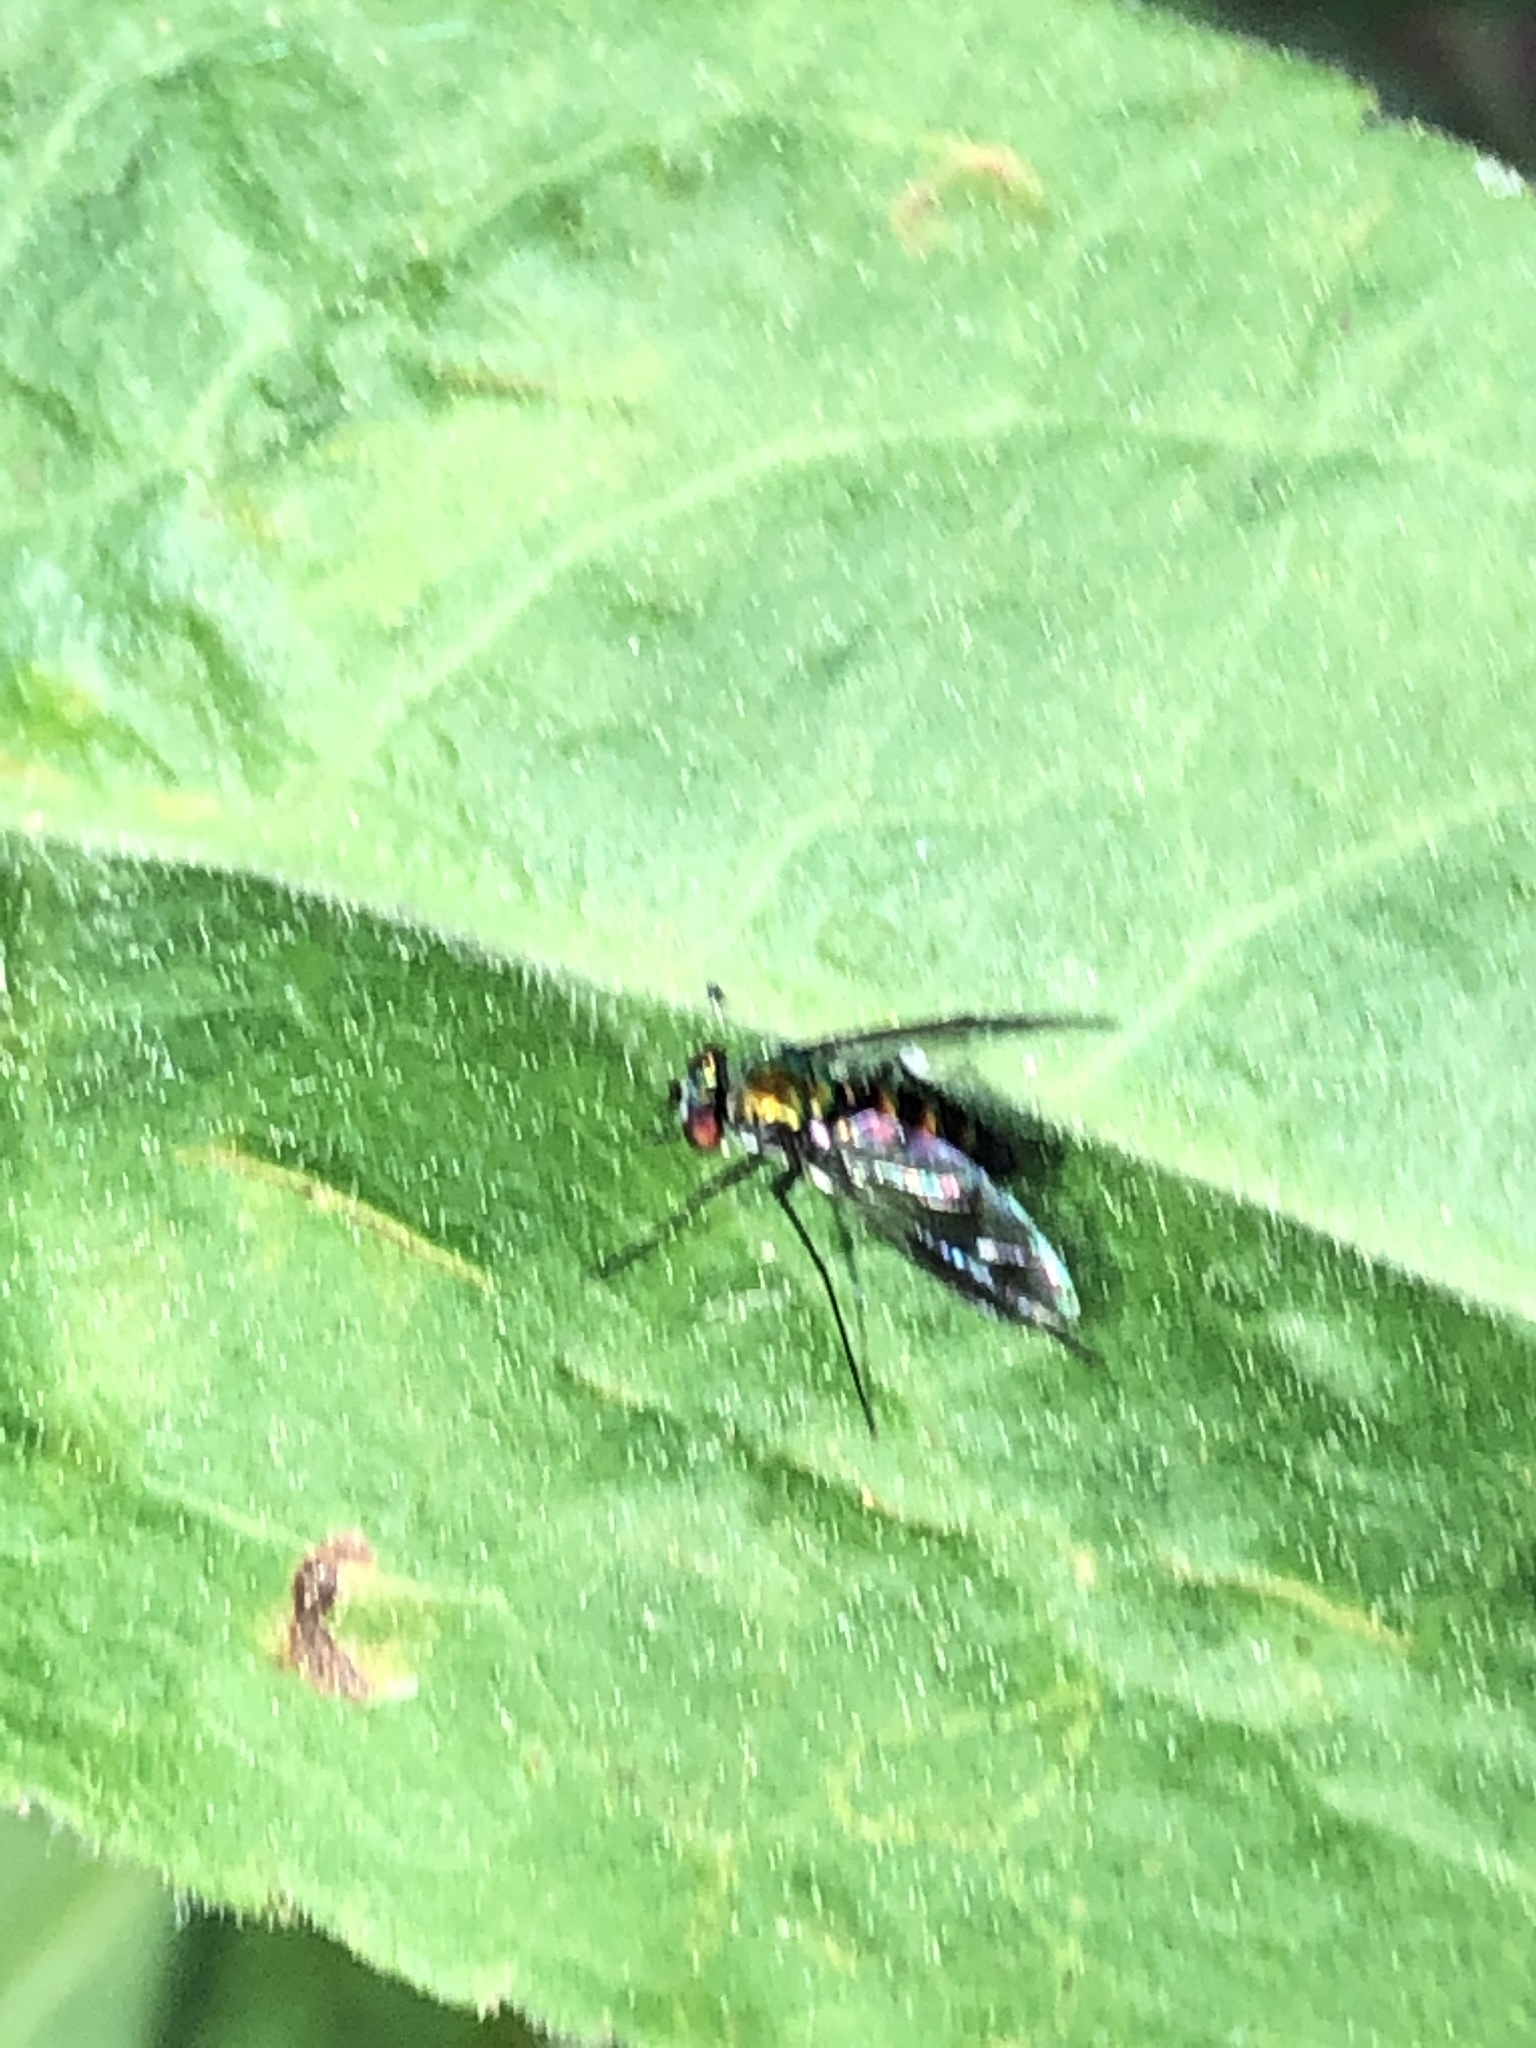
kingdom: Animalia
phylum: Arthropoda
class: Insecta
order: Diptera
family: Dolichopodidae
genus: Condylostylus
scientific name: Condylostylus patibulatus
